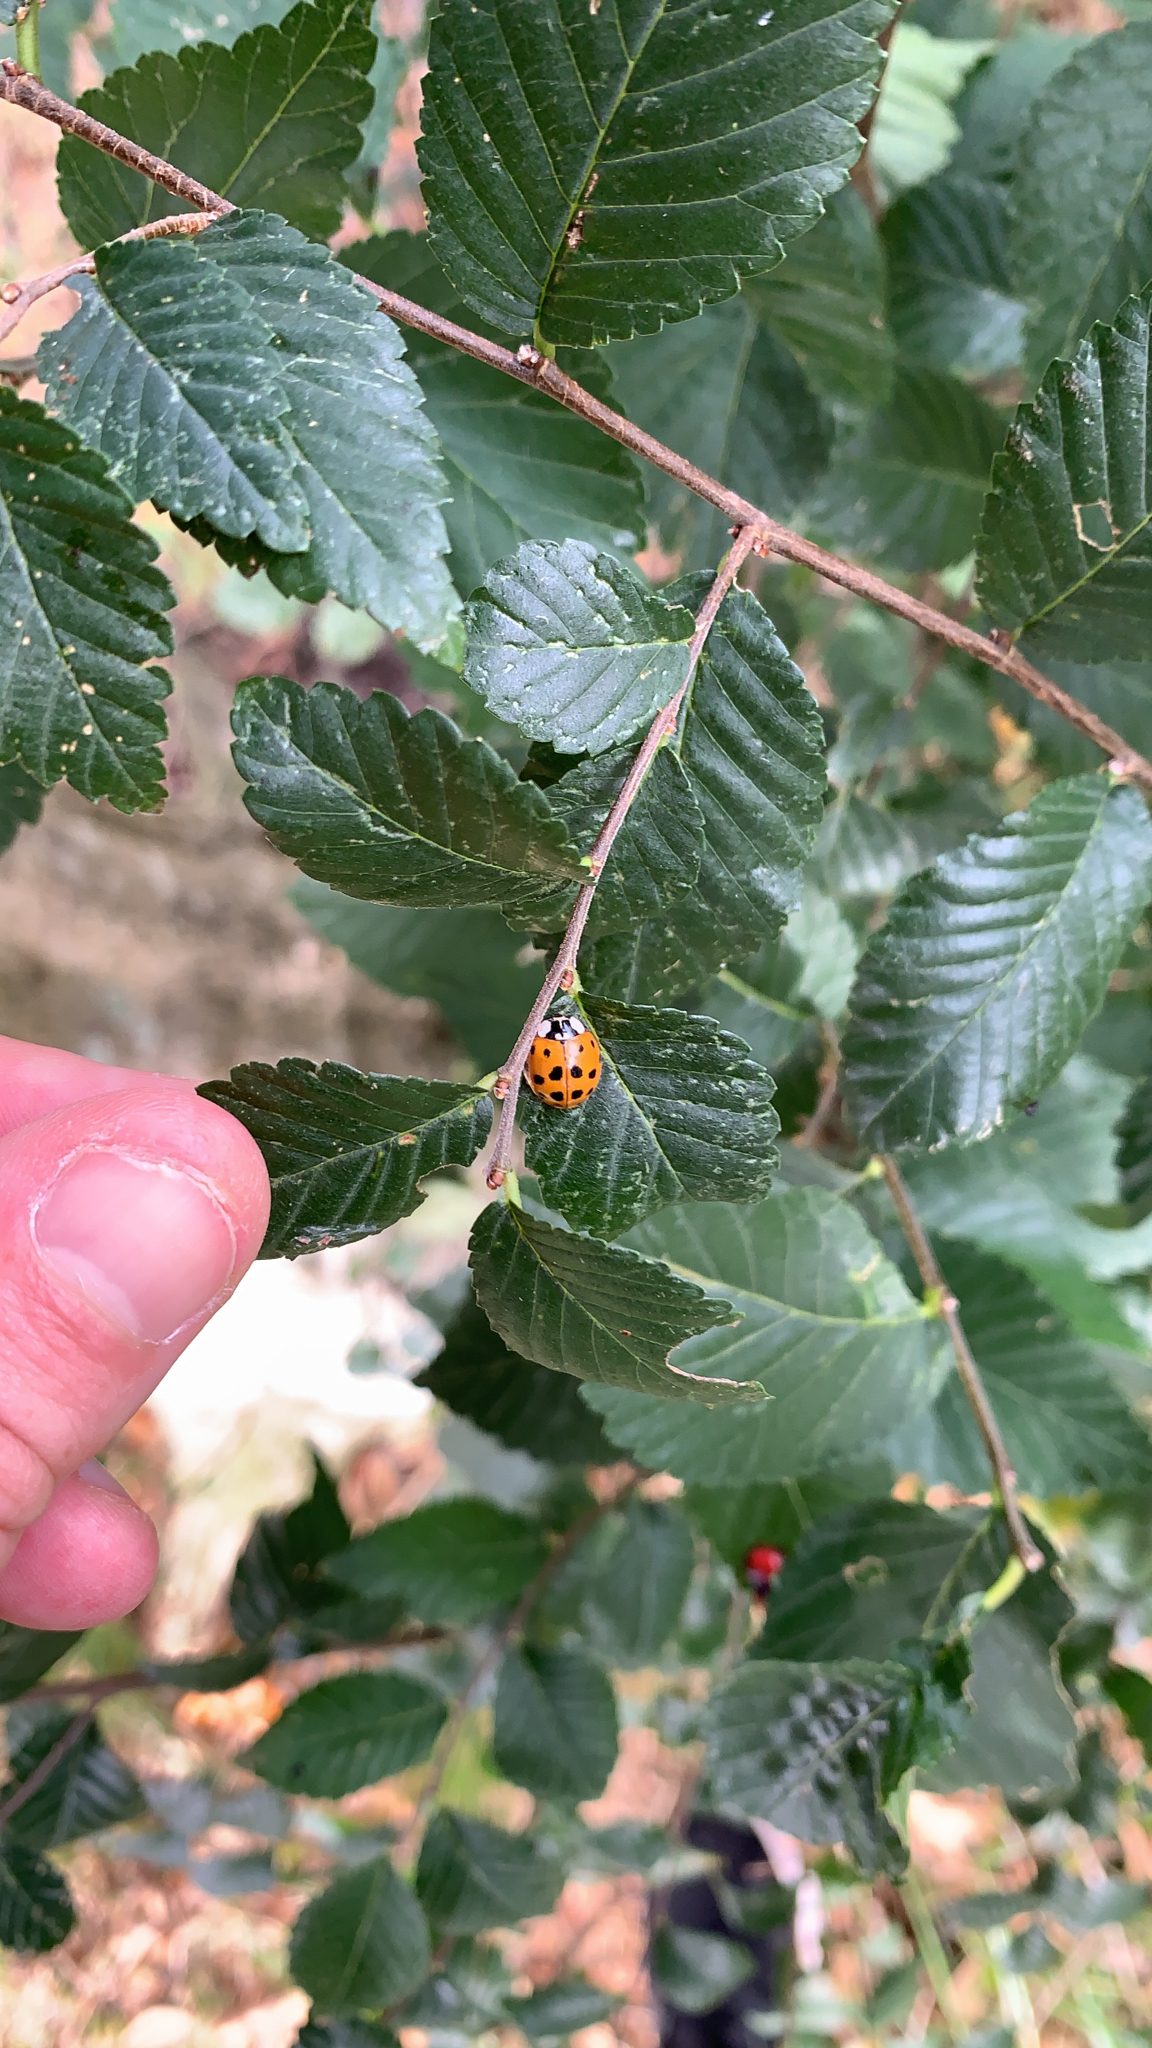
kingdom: Animalia
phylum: Arthropoda
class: Insecta
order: Coleoptera
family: Coccinellidae
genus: Harmonia
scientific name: Harmonia axyridis
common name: Harlequin ladybird
